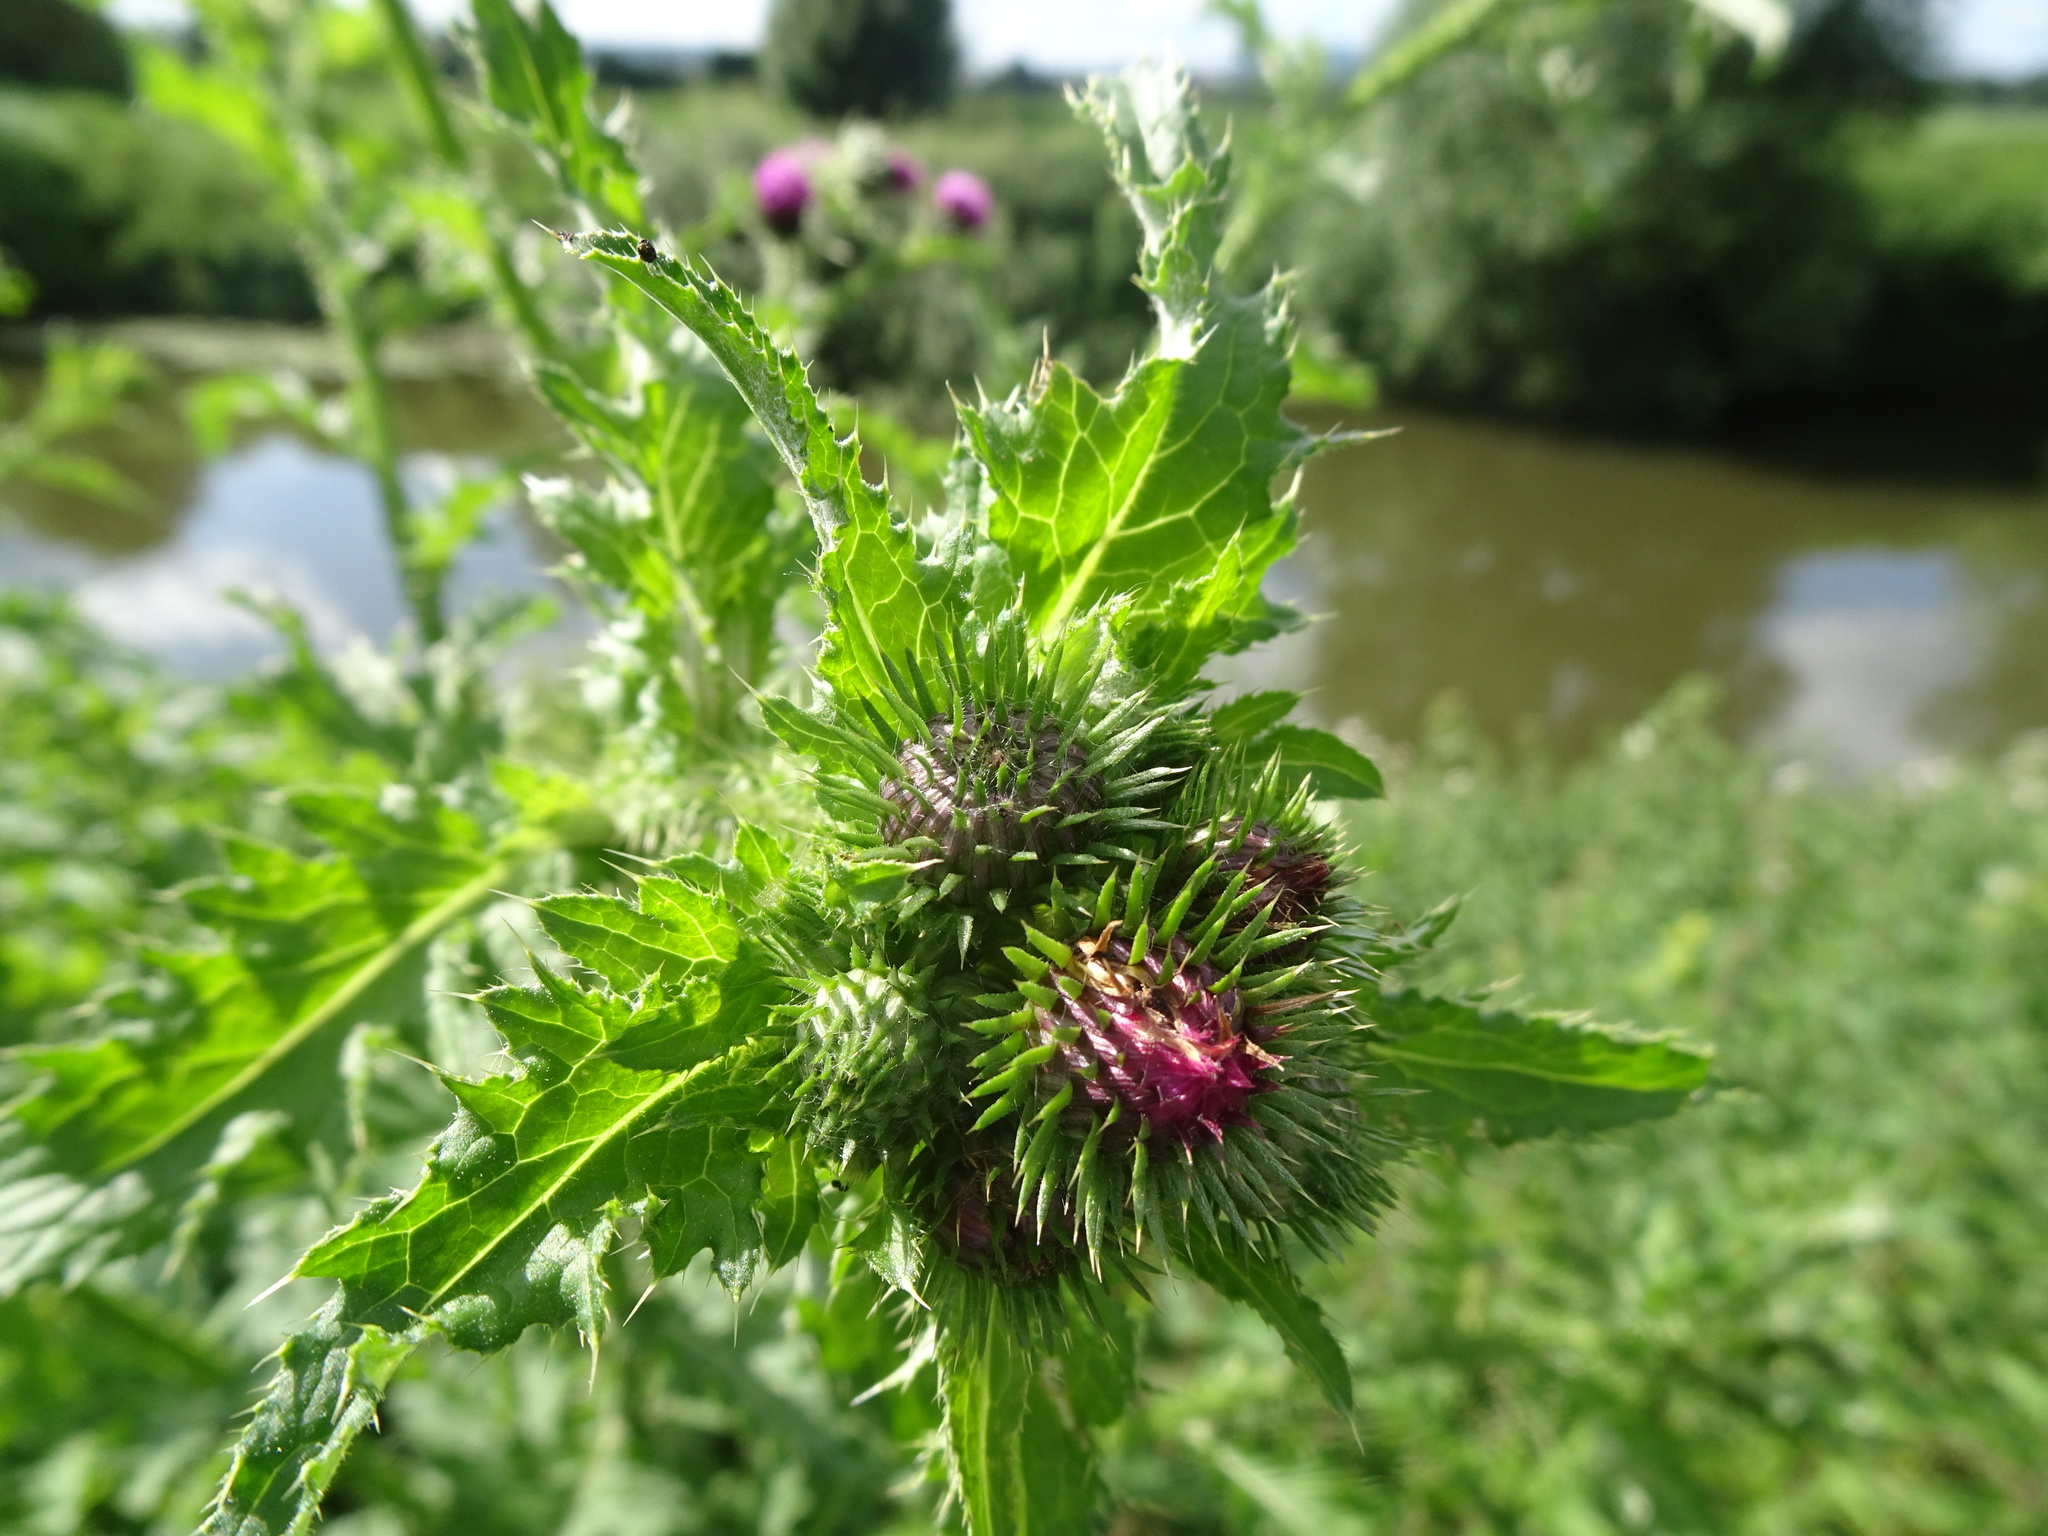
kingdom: Plantae
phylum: Tracheophyta
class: Magnoliopsida
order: Asterales
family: Asteraceae
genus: Carduus
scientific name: Carduus crispus
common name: Welted thistle
